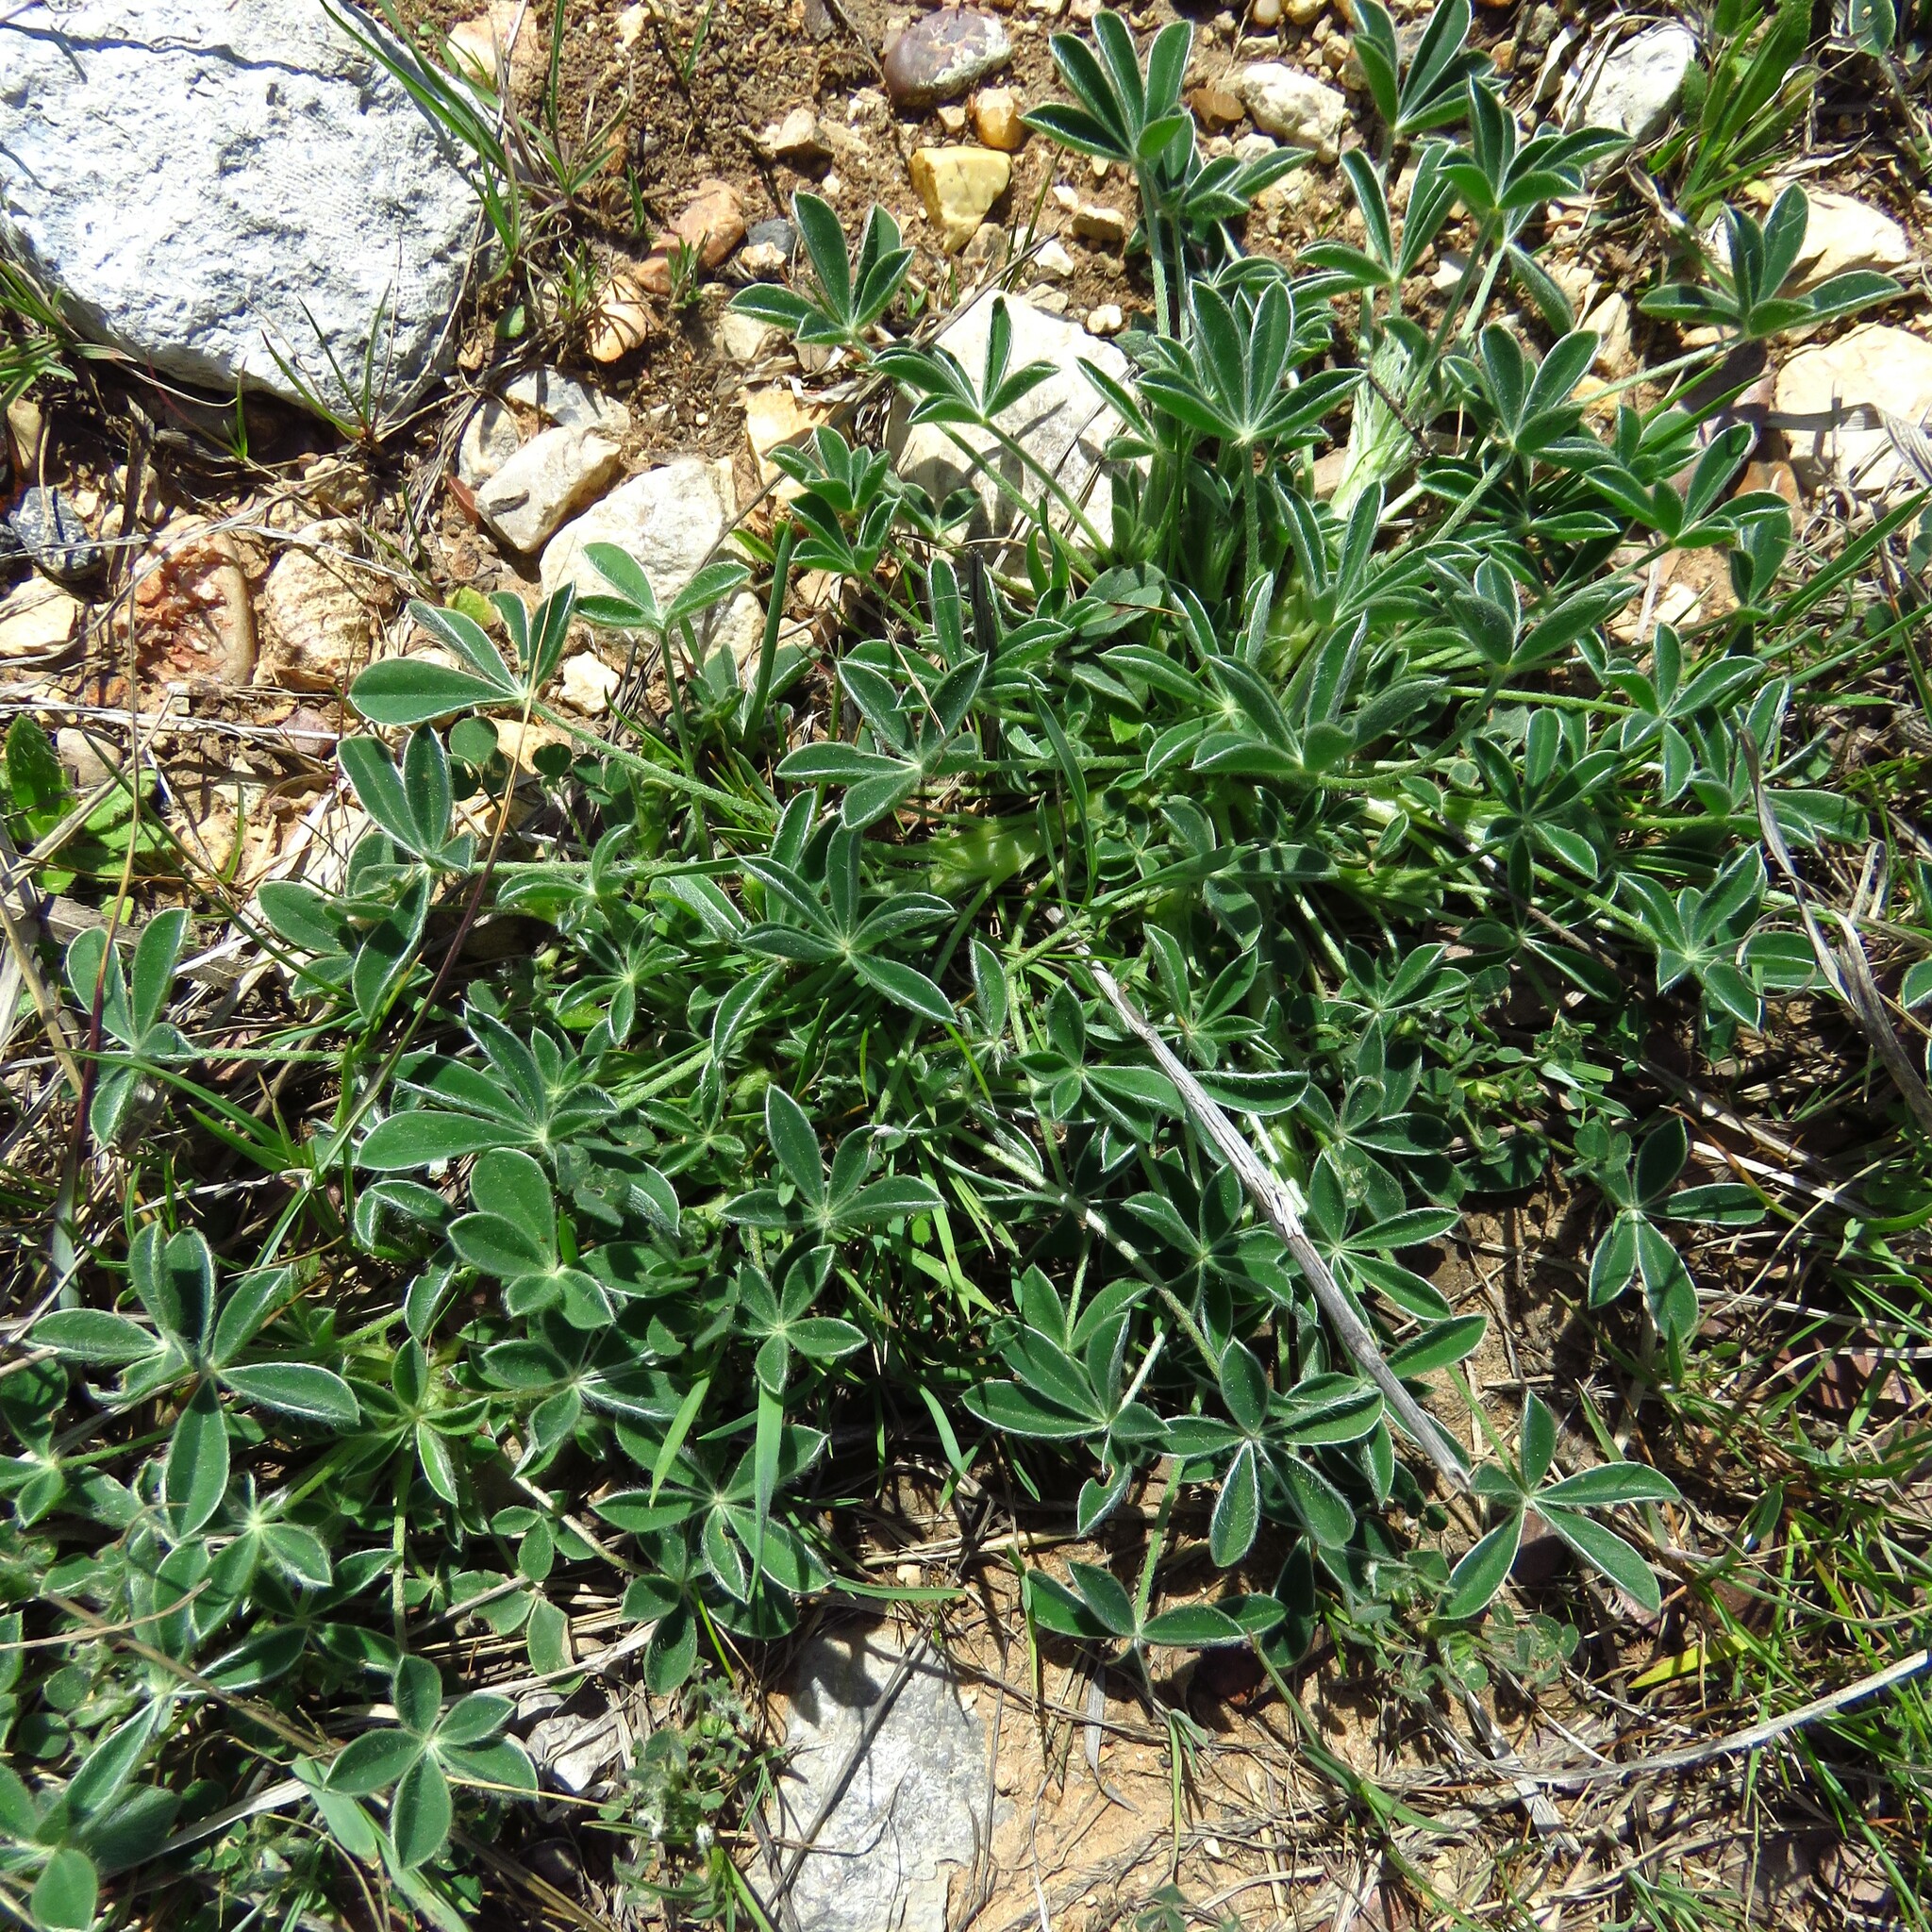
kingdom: Plantae
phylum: Tracheophyta
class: Magnoliopsida
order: Fabales
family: Fabaceae
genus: Lupinus
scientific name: Lupinus texensis
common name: Texas bluebonnet
